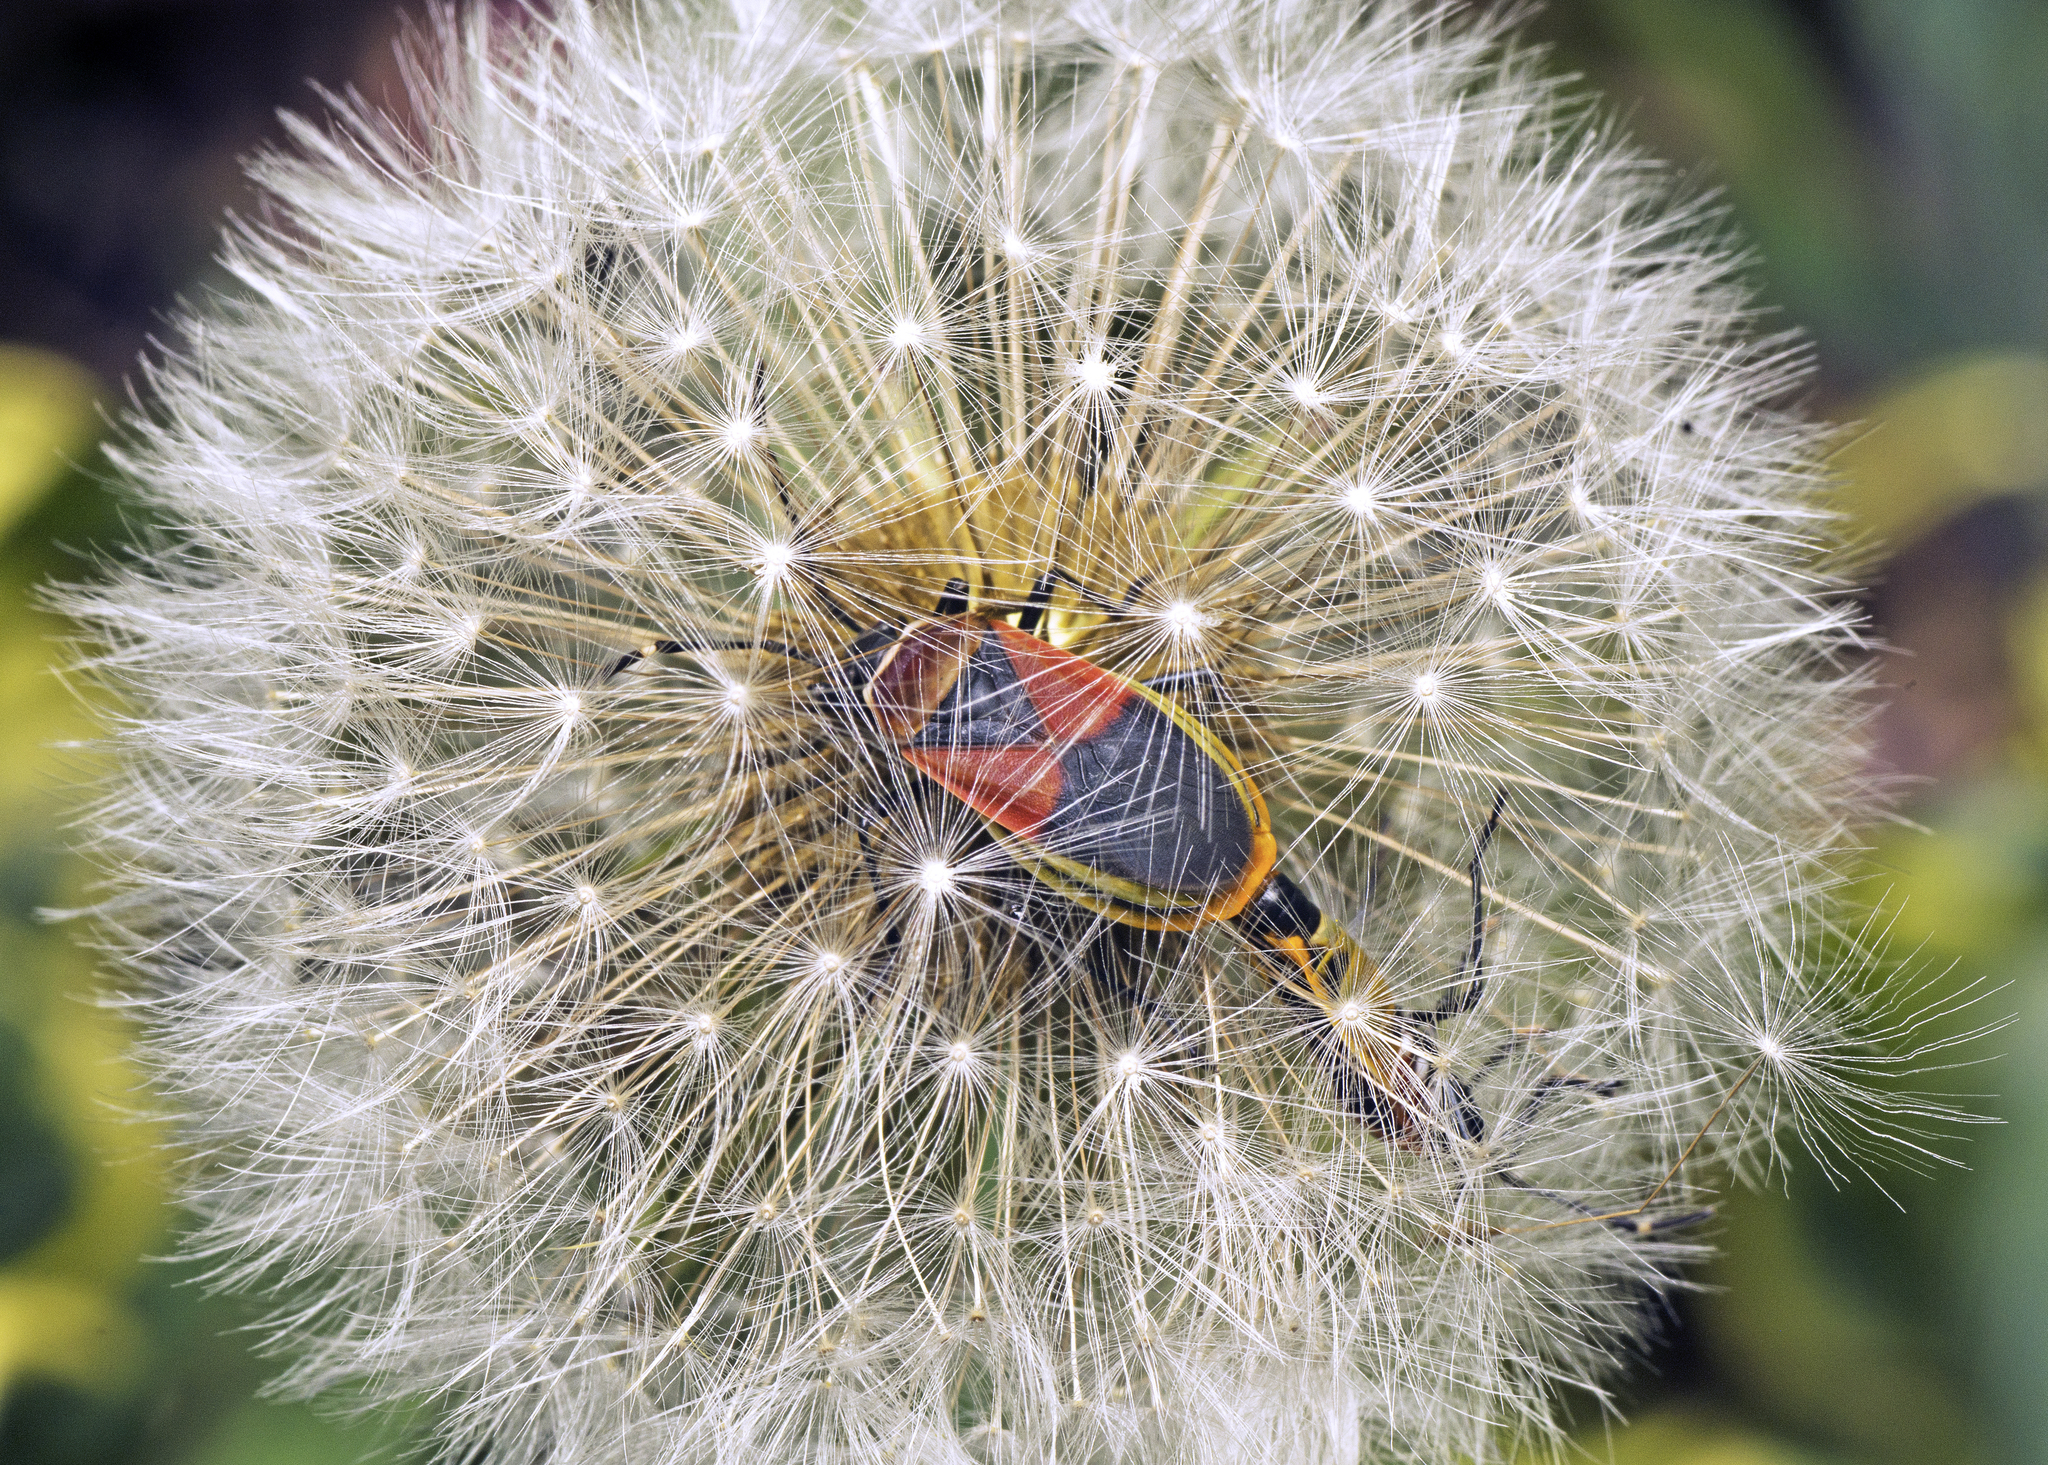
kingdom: Animalia
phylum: Arthropoda
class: Insecta
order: Hemiptera
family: Pyrrhocoridae
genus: Dindymus
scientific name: Dindymus
